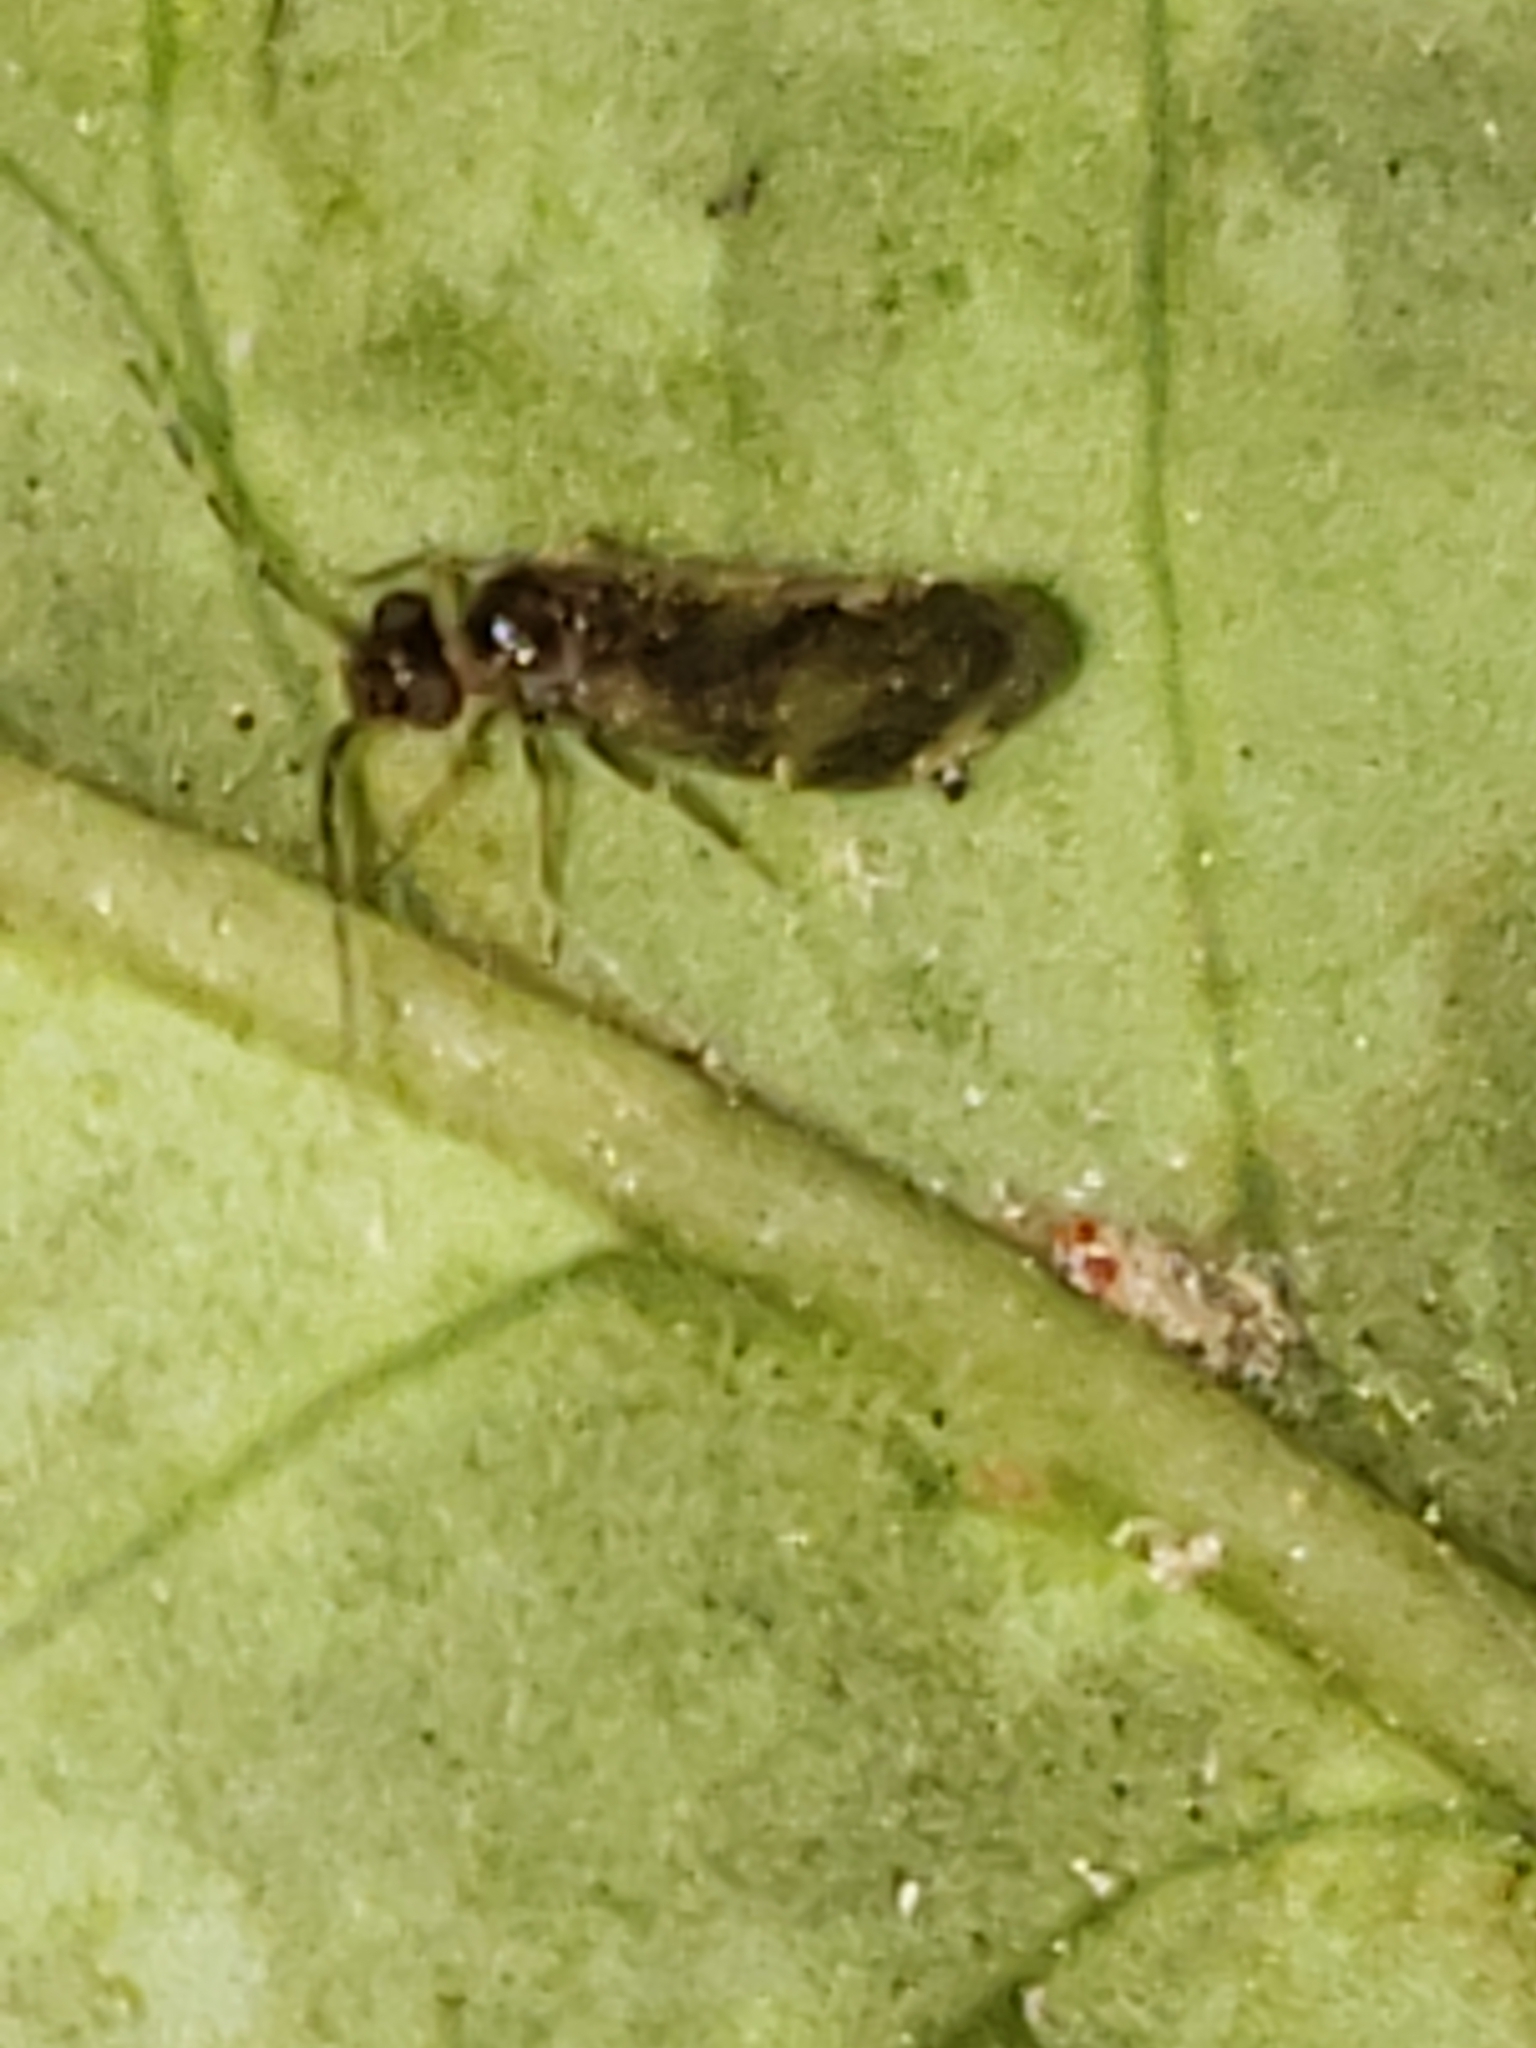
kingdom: Animalia
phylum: Arthropoda
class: Insecta
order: Psocodea
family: Amphipsocidae
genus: Polypsocus
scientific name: Polypsocus corruptus
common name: Corrupt barklouse
